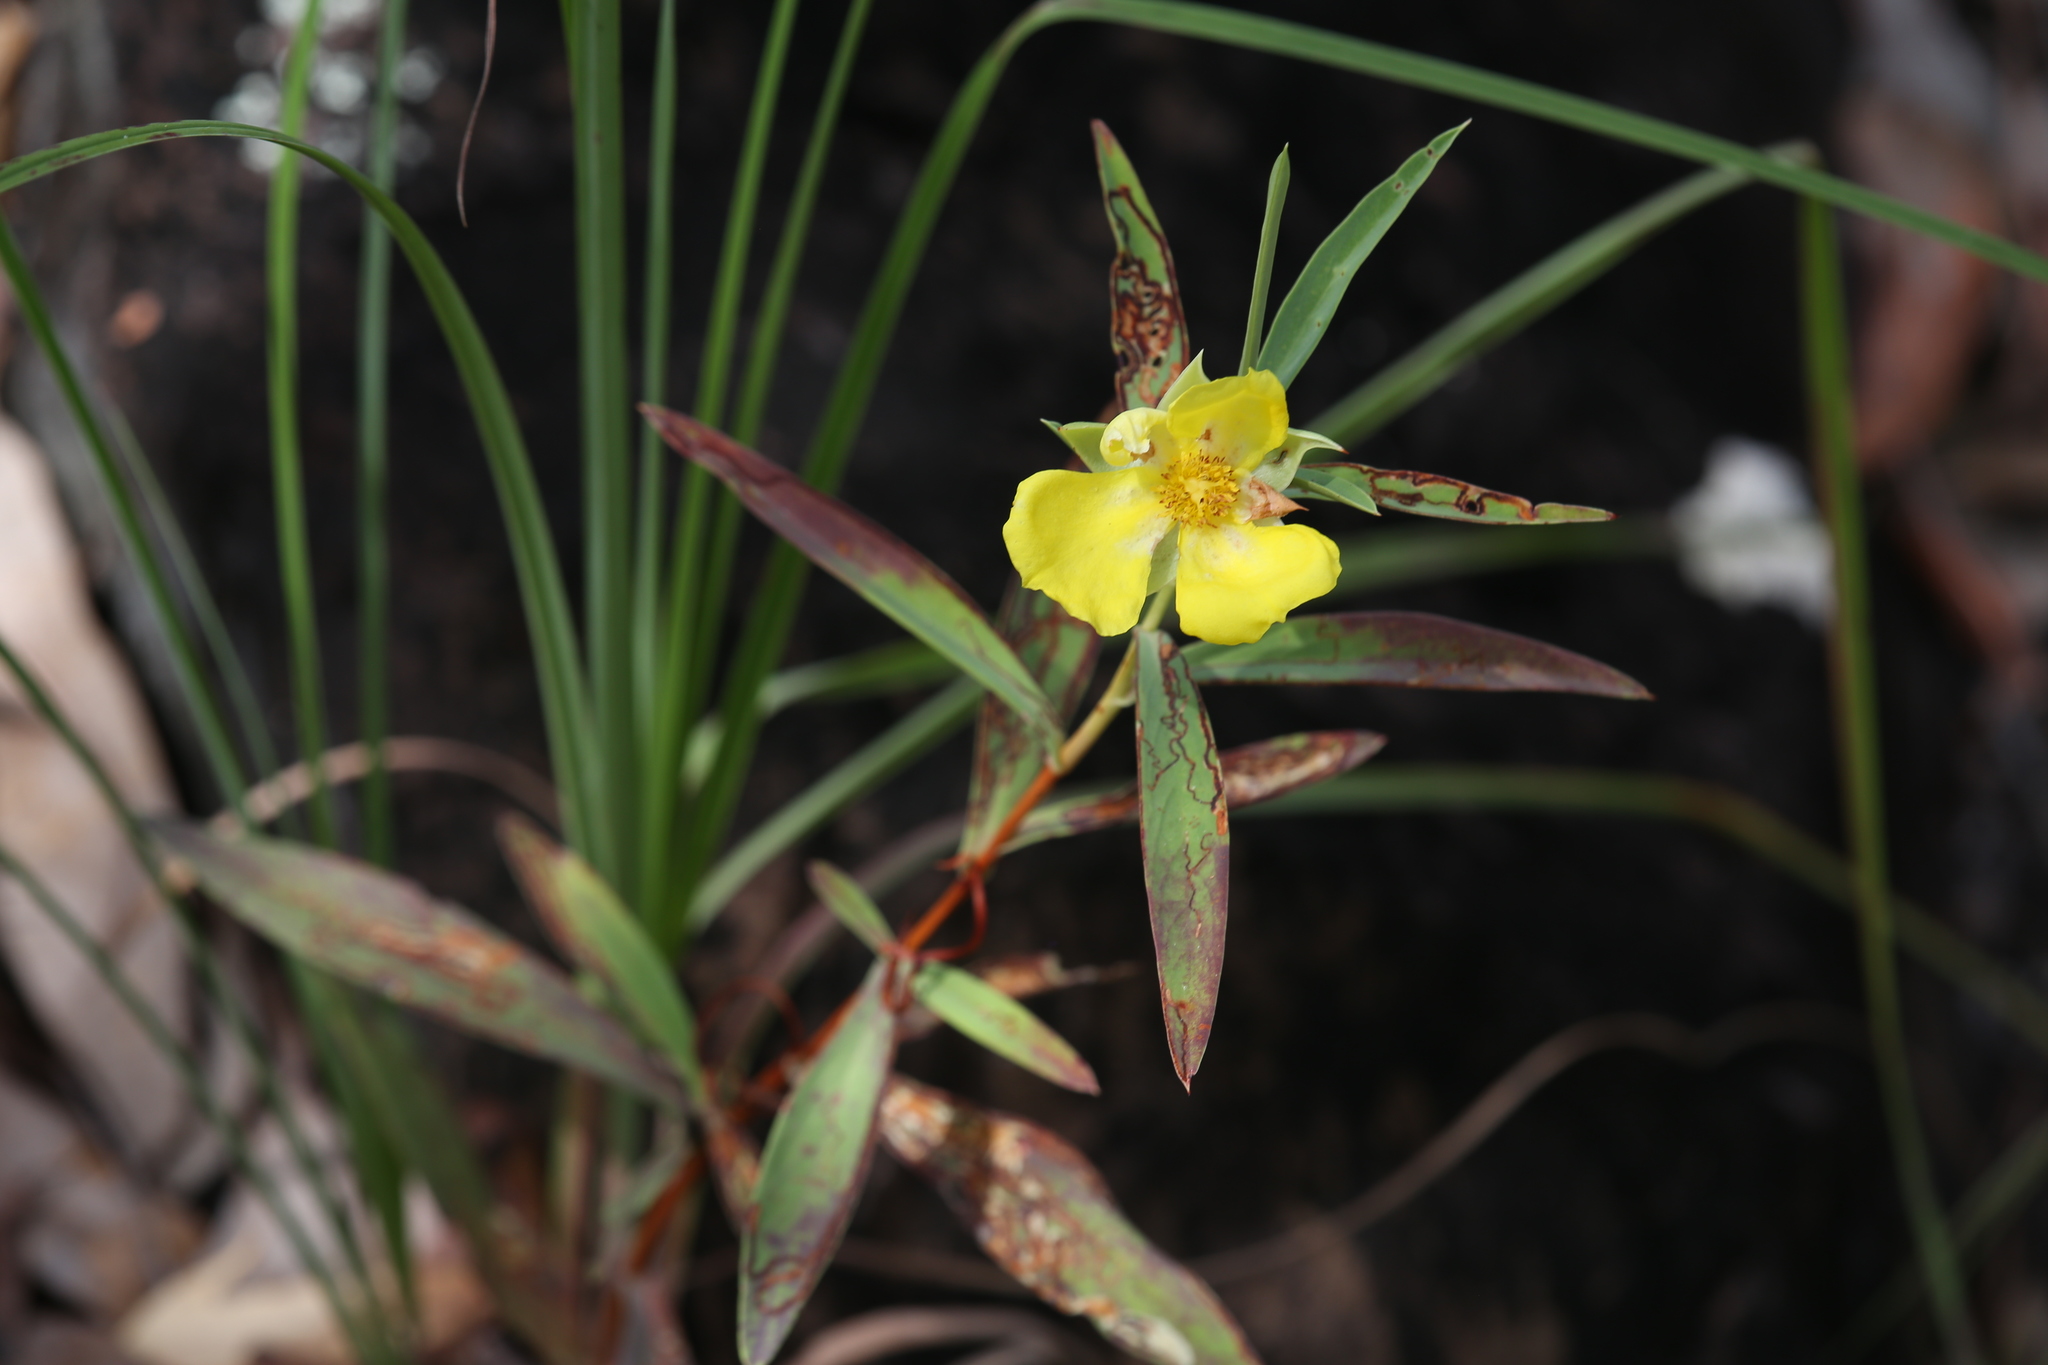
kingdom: Plantae
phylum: Tracheophyta
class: Magnoliopsida
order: Dilleniales
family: Dilleniaceae
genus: Hibbertia
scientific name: Hibbertia longifolia
